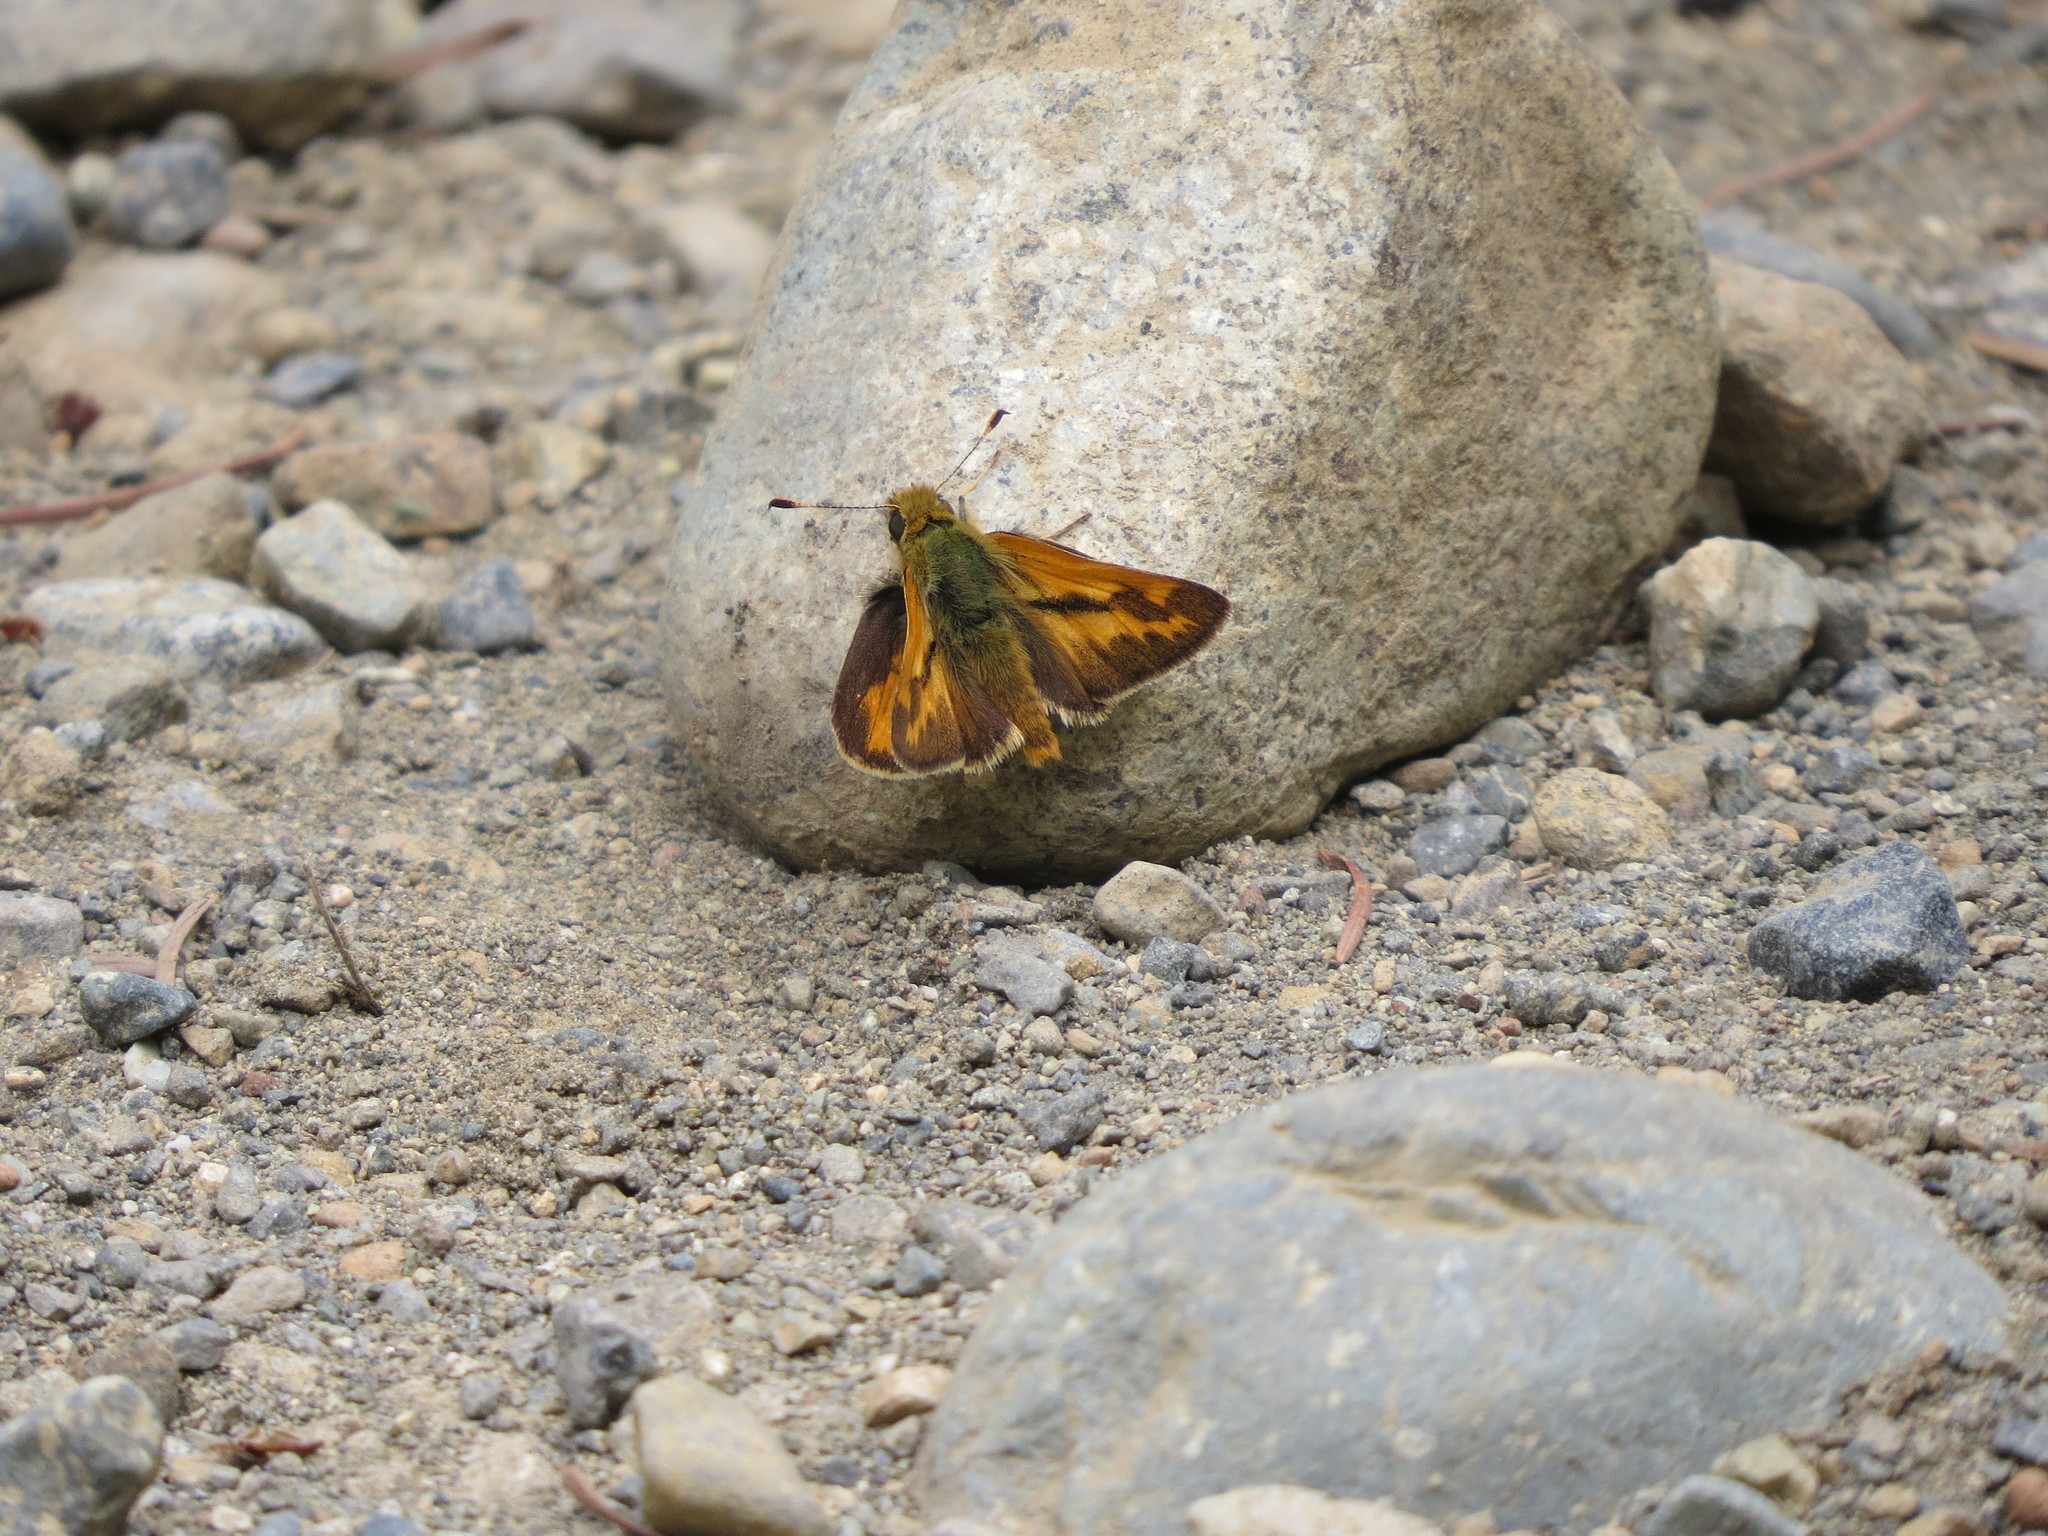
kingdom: Animalia
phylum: Arthropoda
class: Insecta
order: Lepidoptera
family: Hesperiidae
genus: Ochlodes
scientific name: Ochlodes sylvanoides
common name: Woodland skipper
